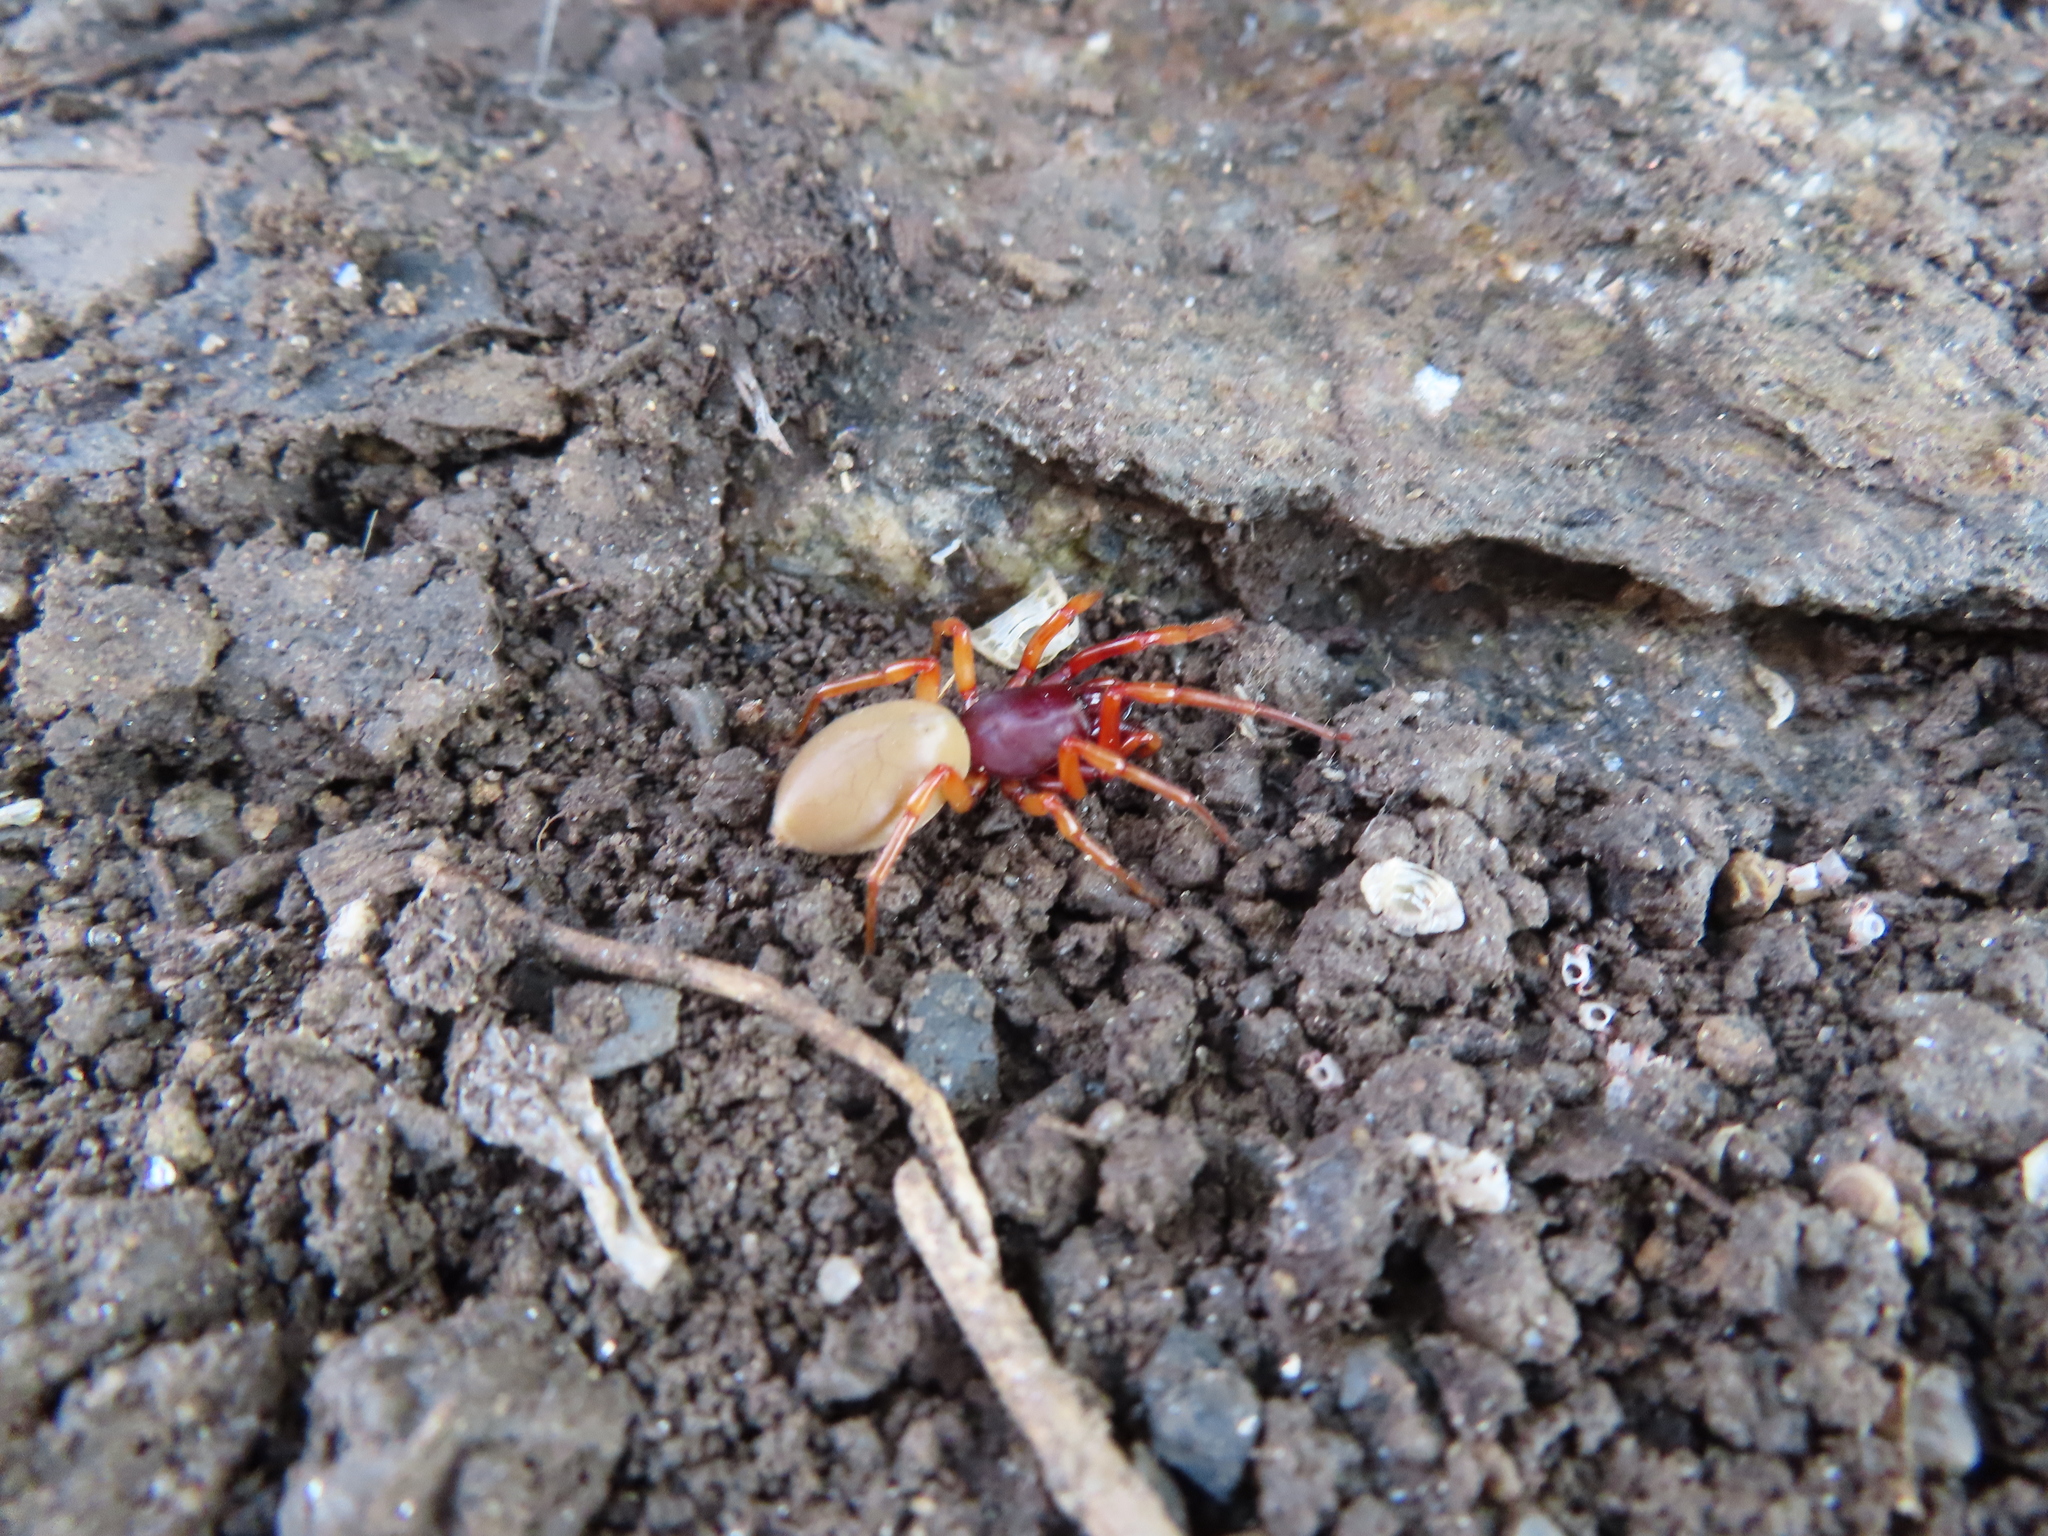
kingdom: Animalia
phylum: Arthropoda
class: Arachnida
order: Araneae
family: Dysderidae
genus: Dysdera
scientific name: Dysdera crocata
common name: Woodlouse spider
